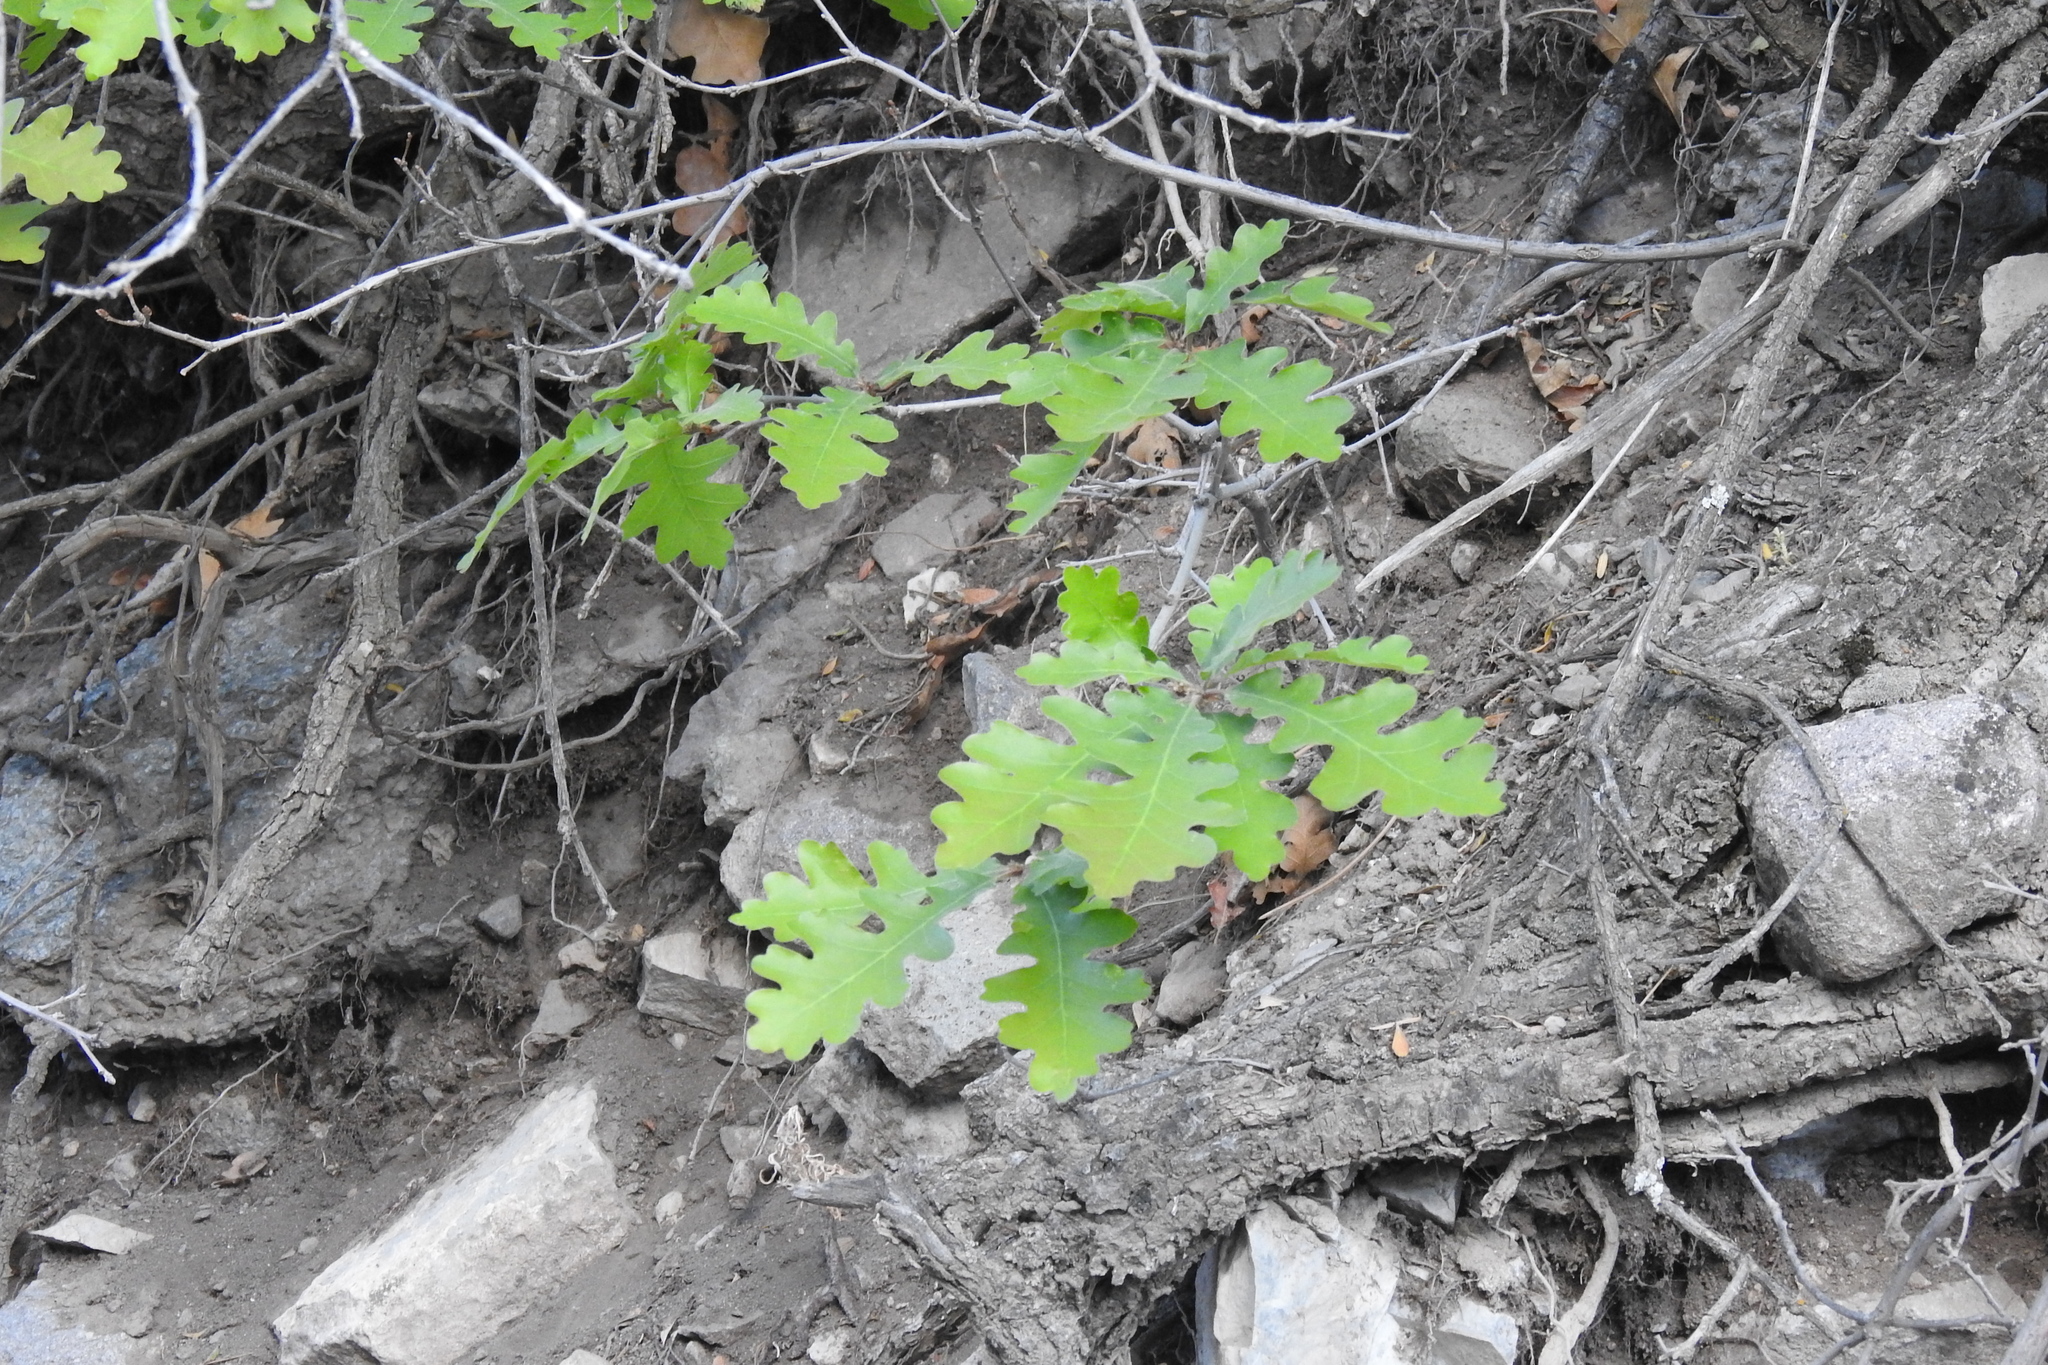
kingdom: Plantae
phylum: Tracheophyta
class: Magnoliopsida
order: Fagales
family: Fagaceae
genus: Quercus
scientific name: Quercus gambelii
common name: Gambel oak
